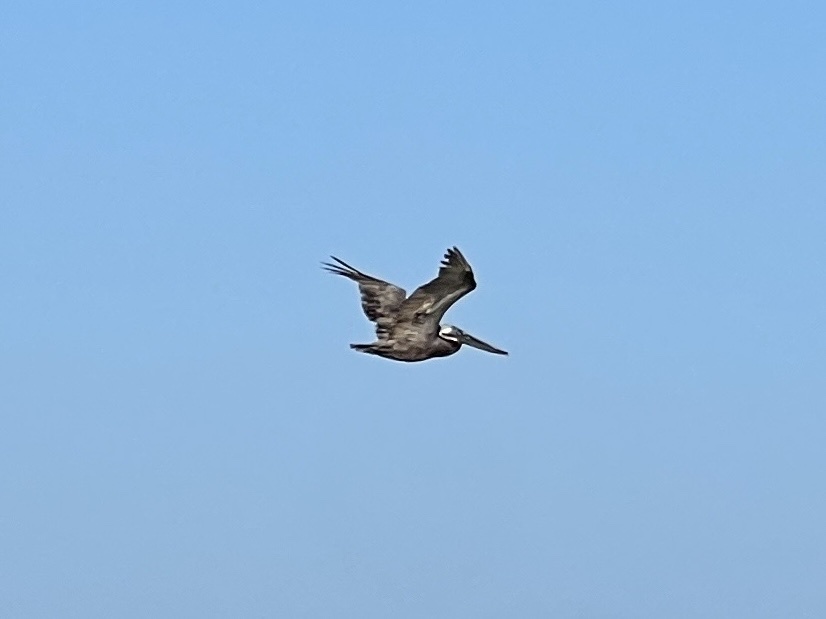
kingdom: Animalia
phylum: Chordata
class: Aves
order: Pelecaniformes
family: Pelecanidae
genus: Pelecanus
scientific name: Pelecanus occidentalis
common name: Brown pelican
